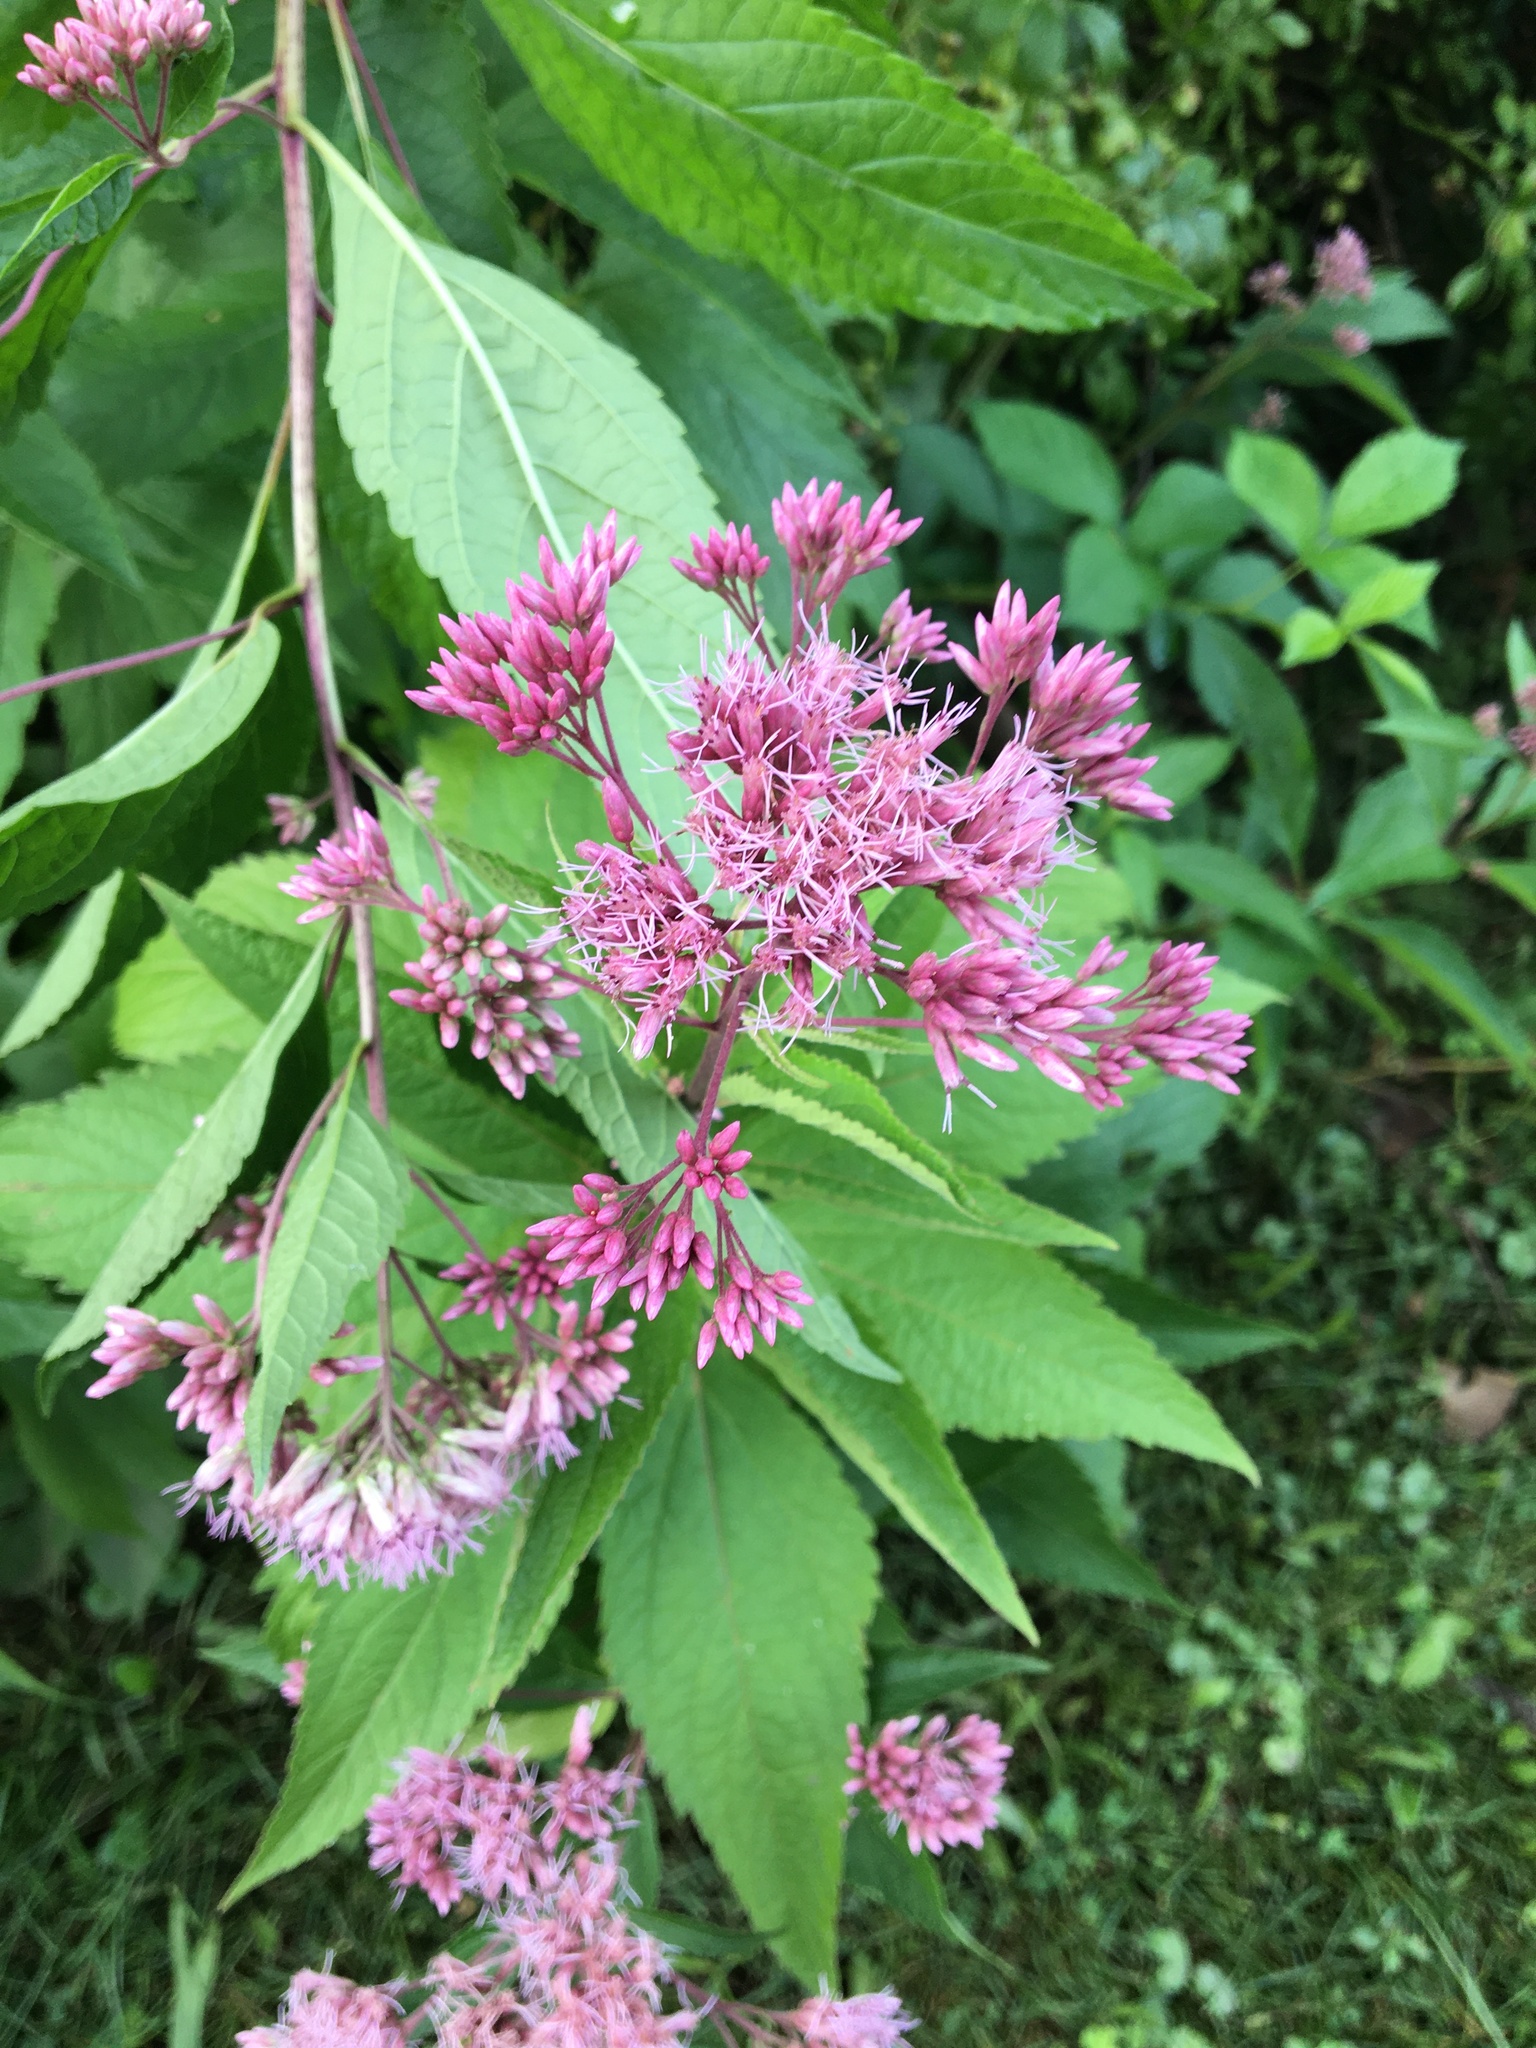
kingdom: Plantae
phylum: Tracheophyta
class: Magnoliopsida
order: Asterales
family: Asteraceae
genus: Eutrochium
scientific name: Eutrochium dubium
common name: Coastal plain joe pye weed
